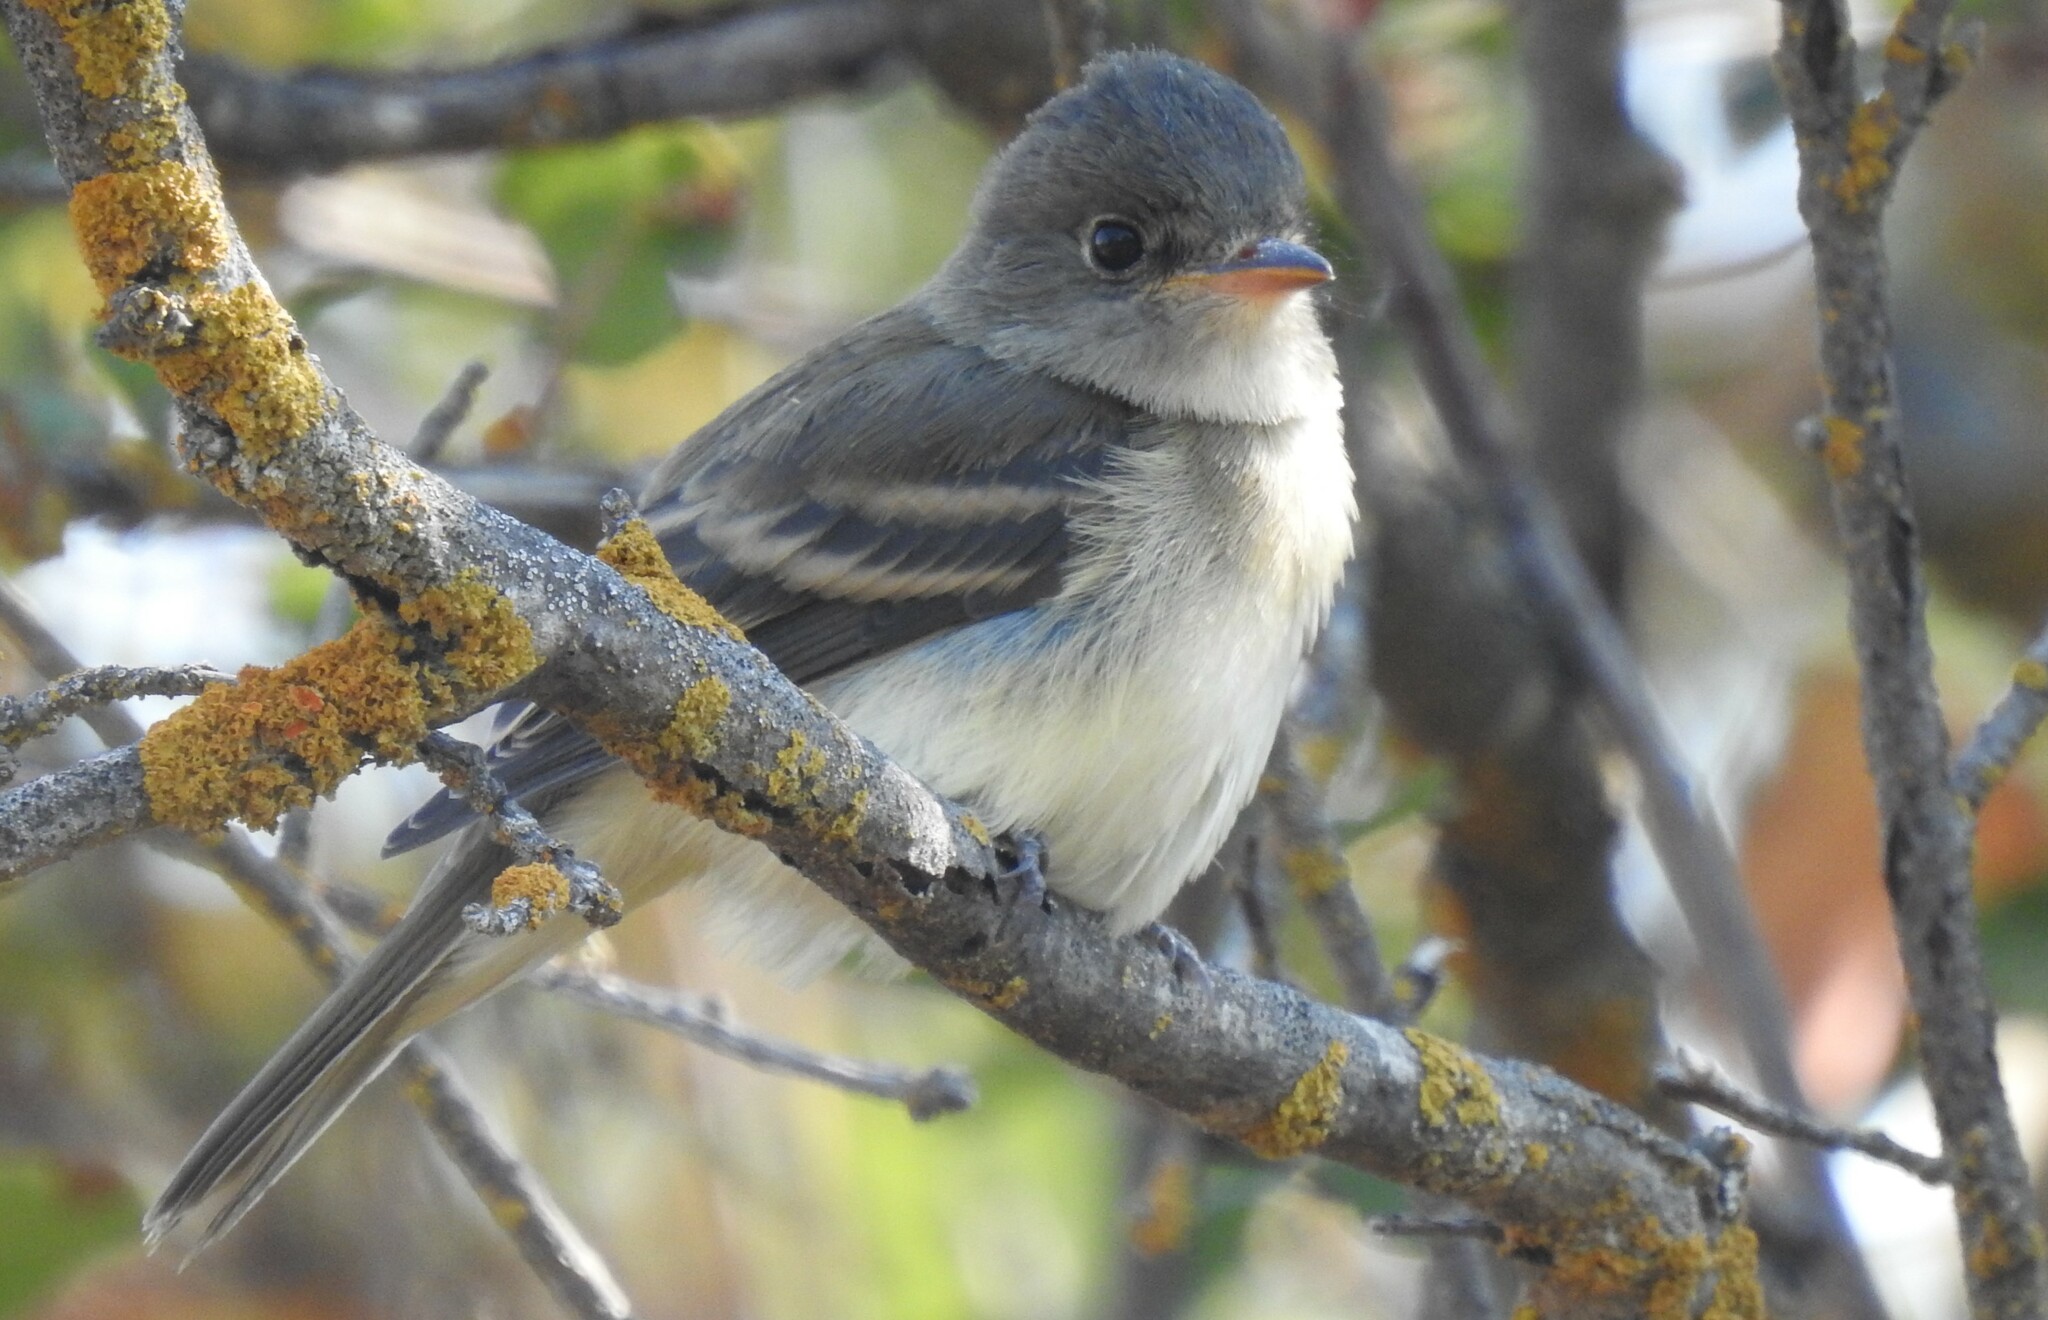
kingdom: Animalia
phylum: Chordata
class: Aves
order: Passeriformes
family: Tyrannidae
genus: Empidonax
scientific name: Empidonax traillii
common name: Willow flycatcher
